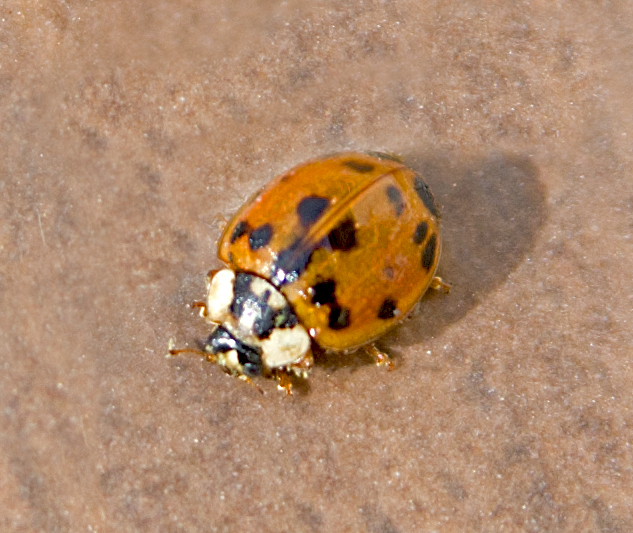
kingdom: Animalia
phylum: Arthropoda
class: Insecta
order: Coleoptera
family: Coccinellidae
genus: Harmonia
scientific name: Harmonia axyridis
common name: Harlequin ladybird
